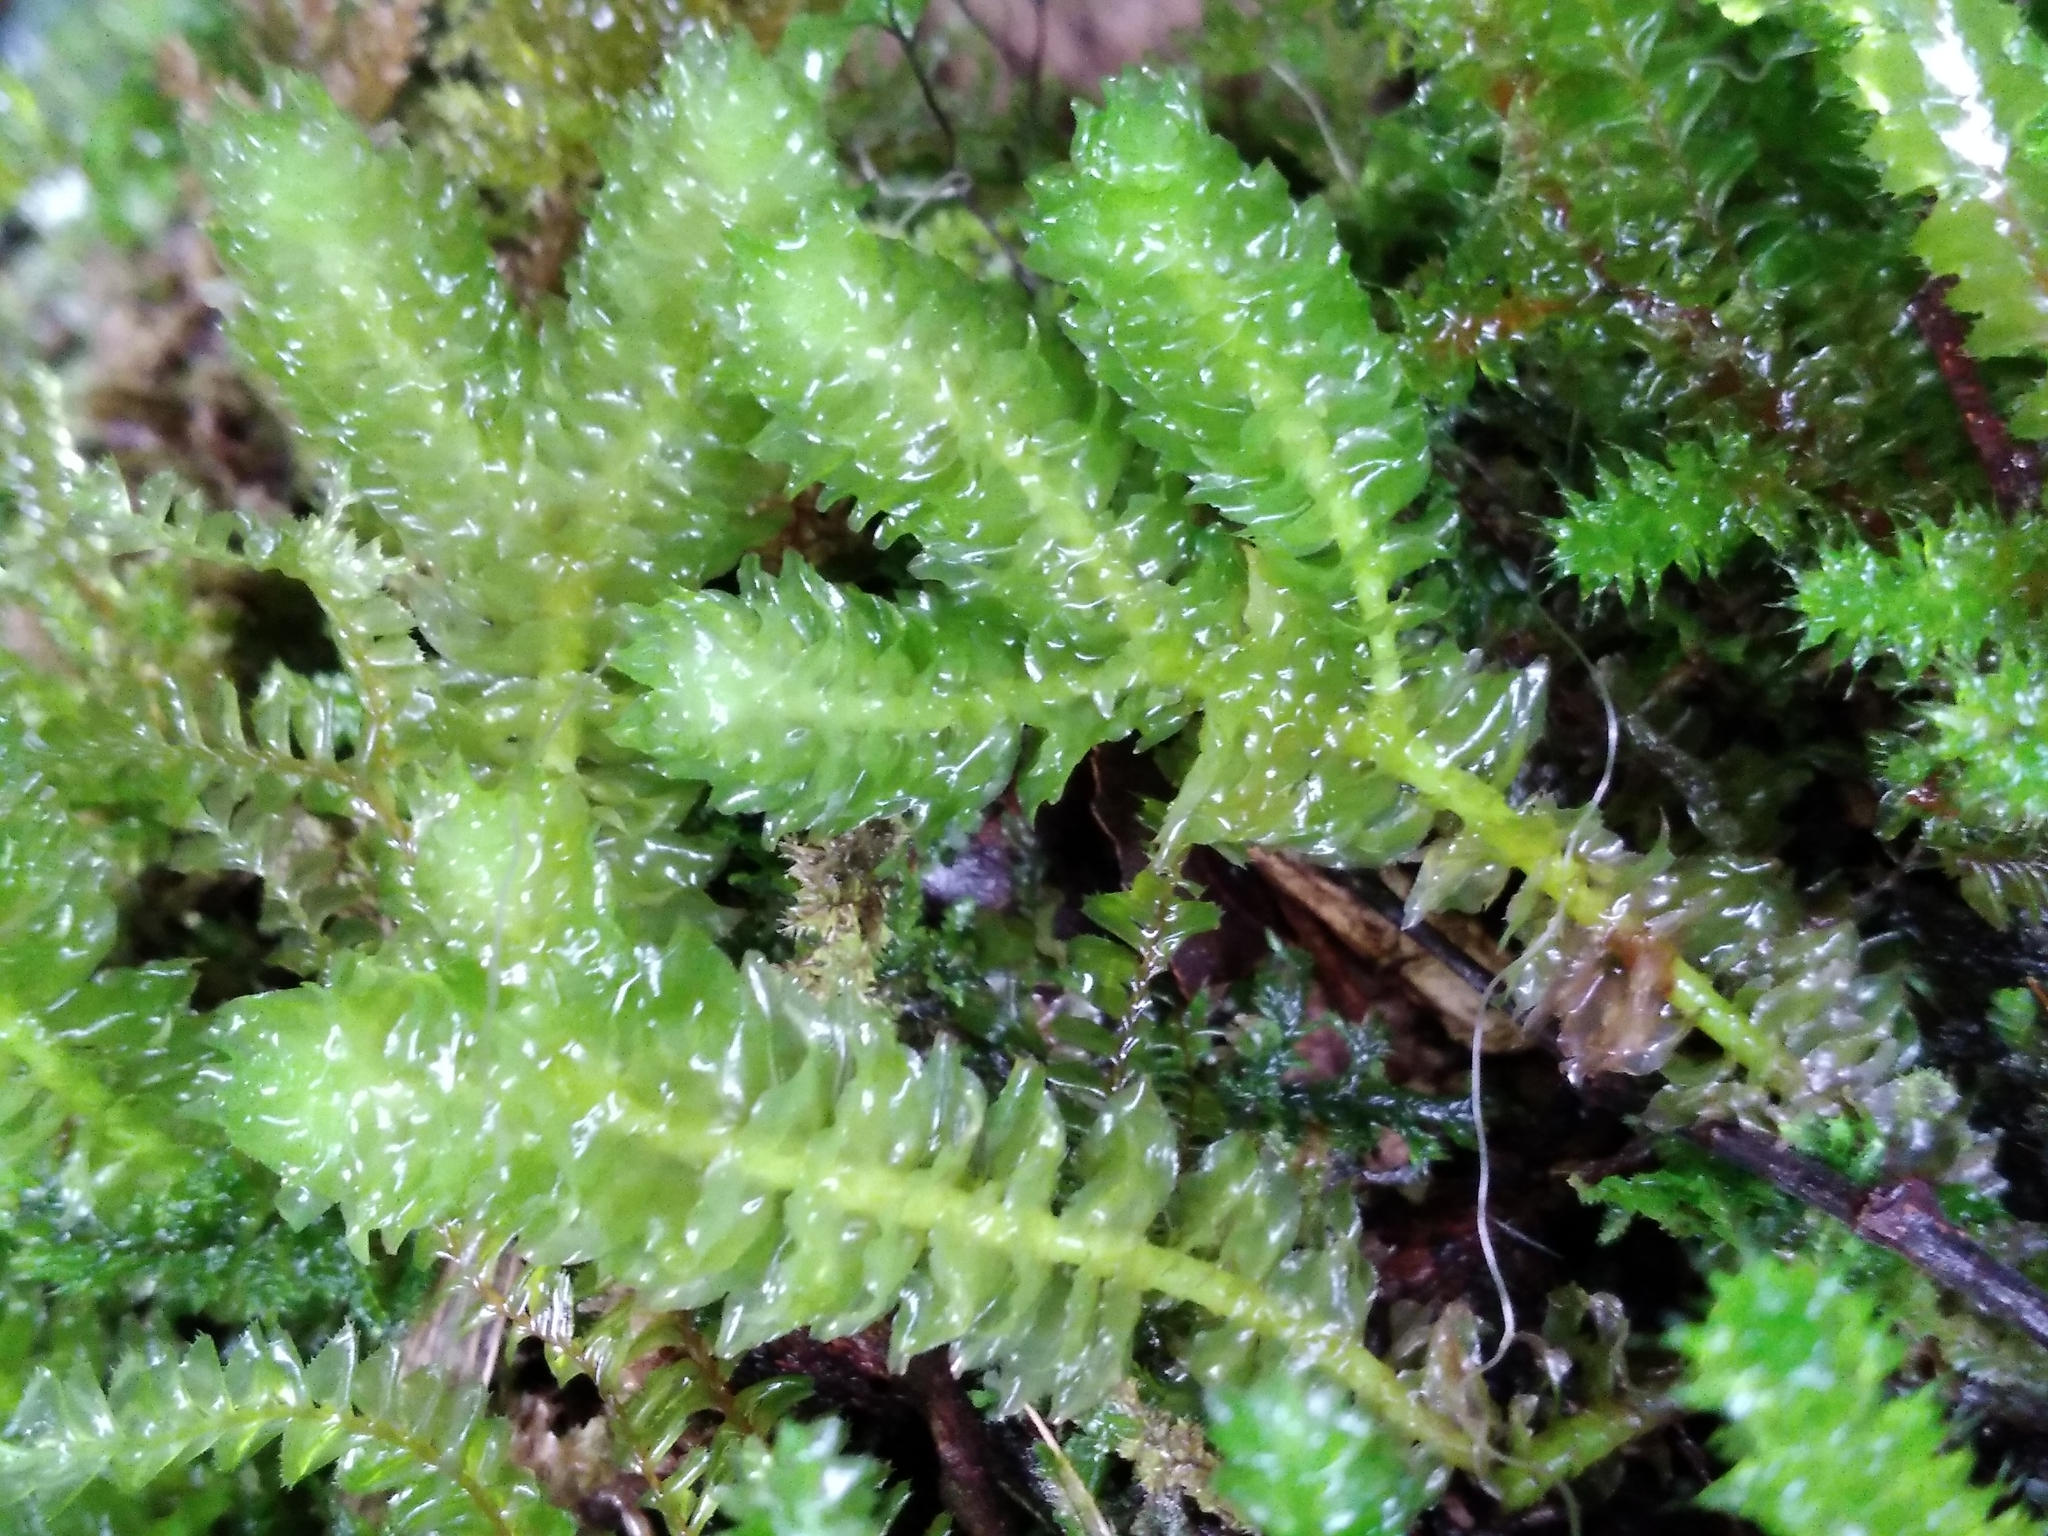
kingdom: Plantae
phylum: Marchantiophyta
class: Jungermanniopsida
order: Jungermanniales
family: Schistochilaceae
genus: Schistochila
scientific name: Schistochila nobilis
